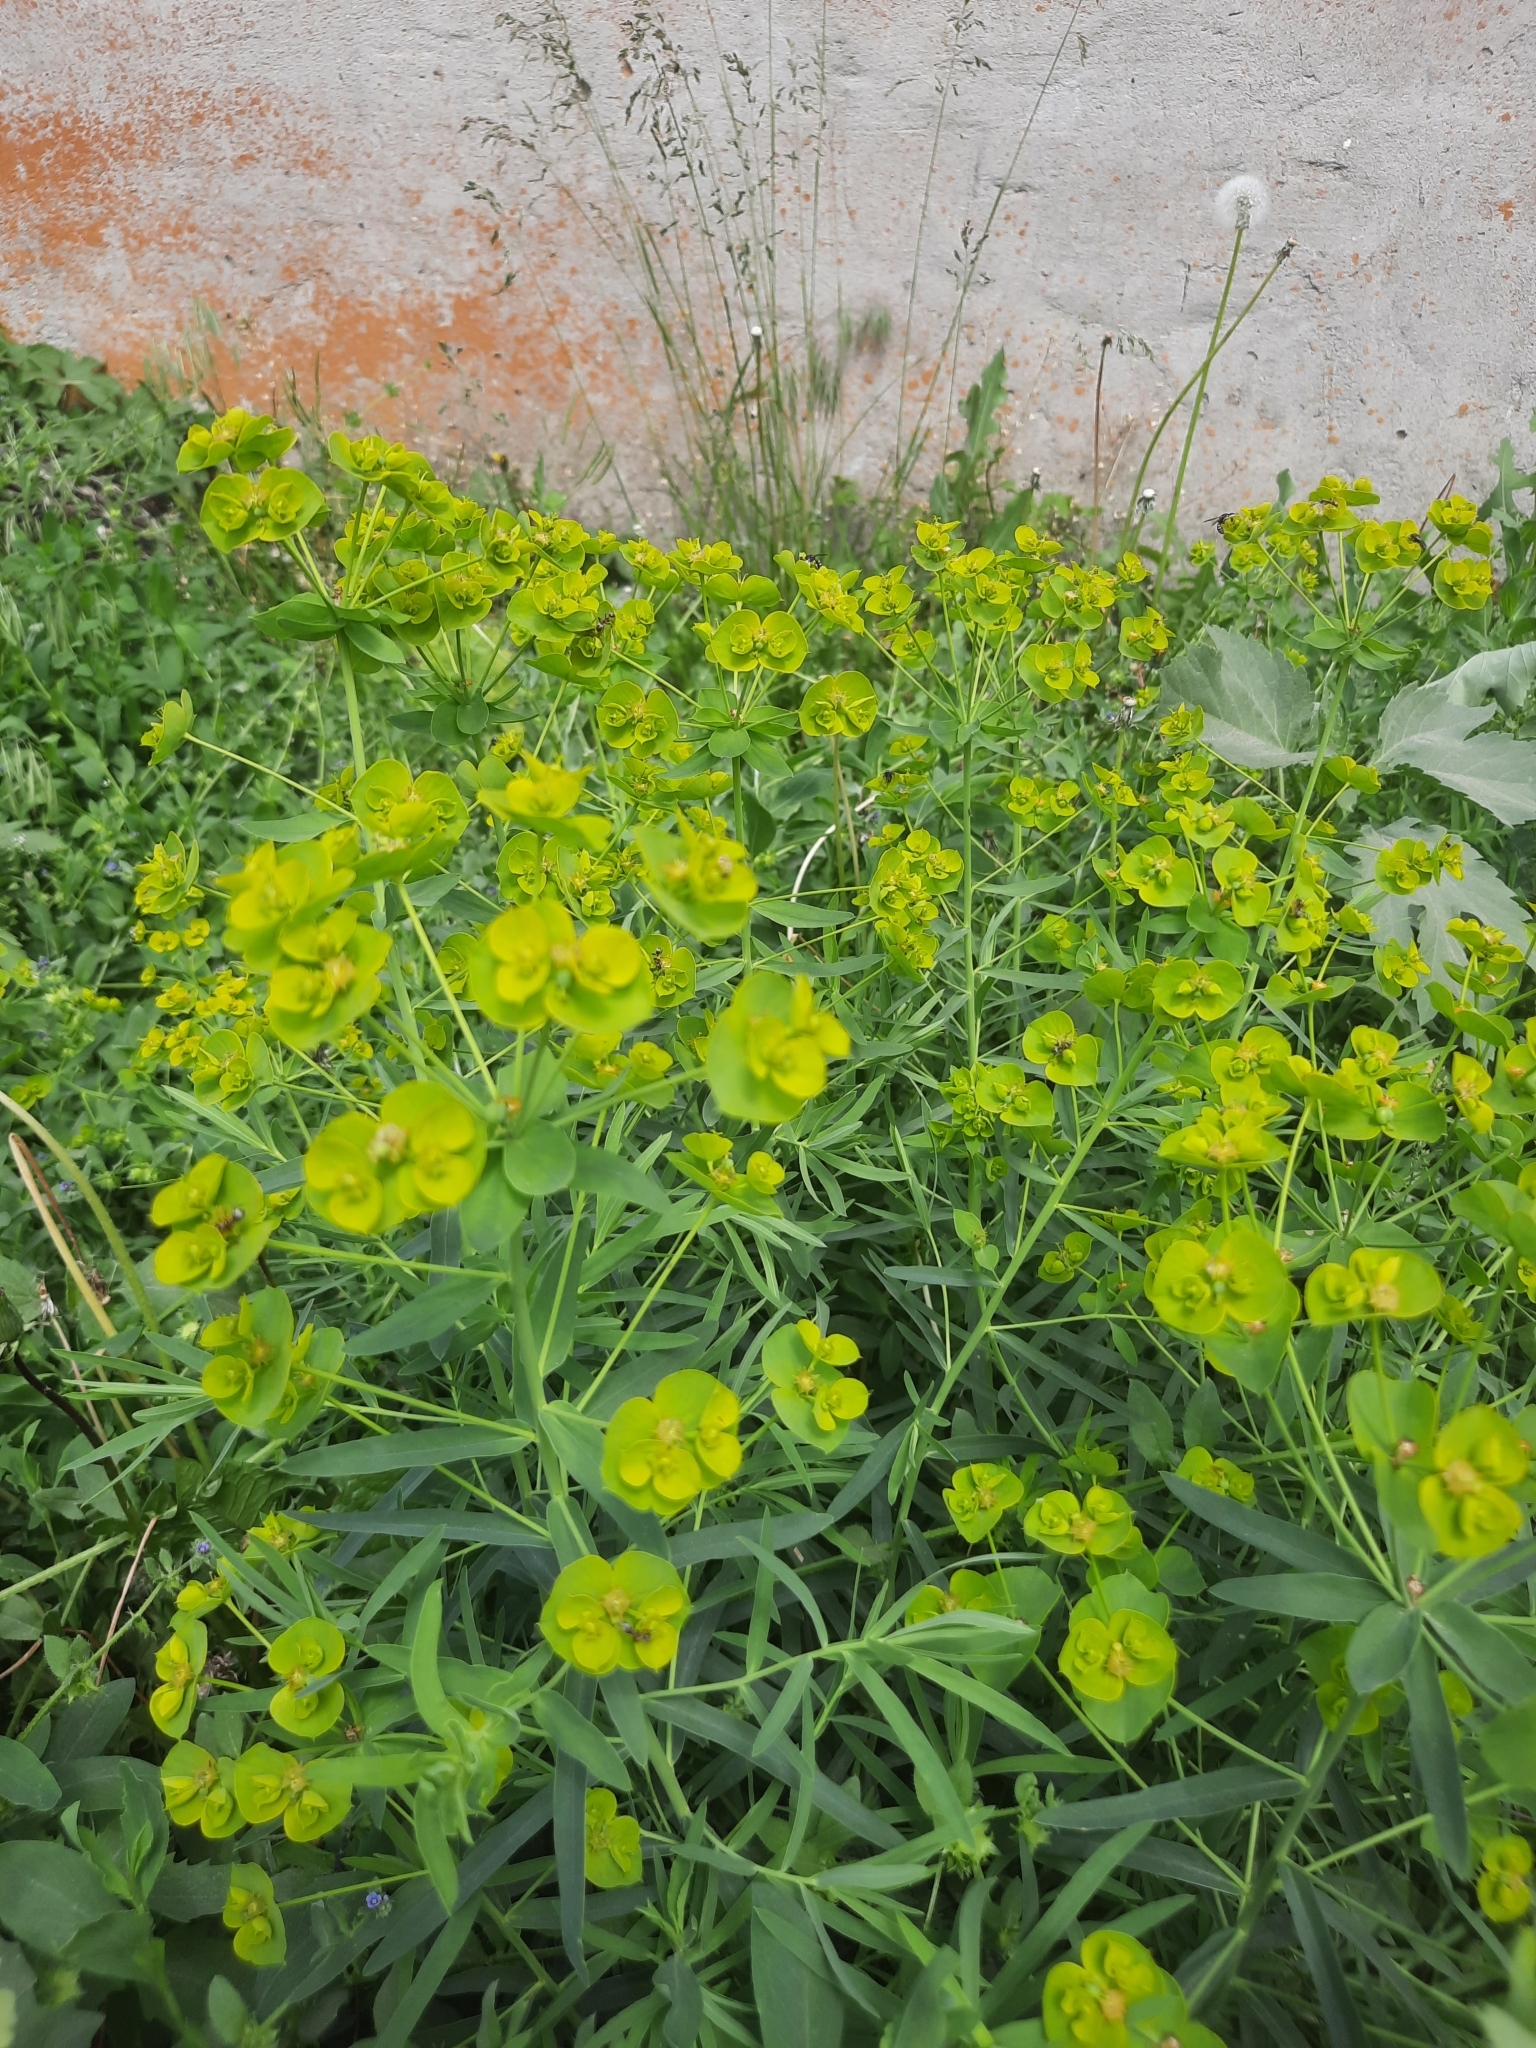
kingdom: Plantae
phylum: Tracheophyta
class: Magnoliopsida
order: Malpighiales
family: Euphorbiaceae
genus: Euphorbia
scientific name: Euphorbia virgata
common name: Leafy spurge
